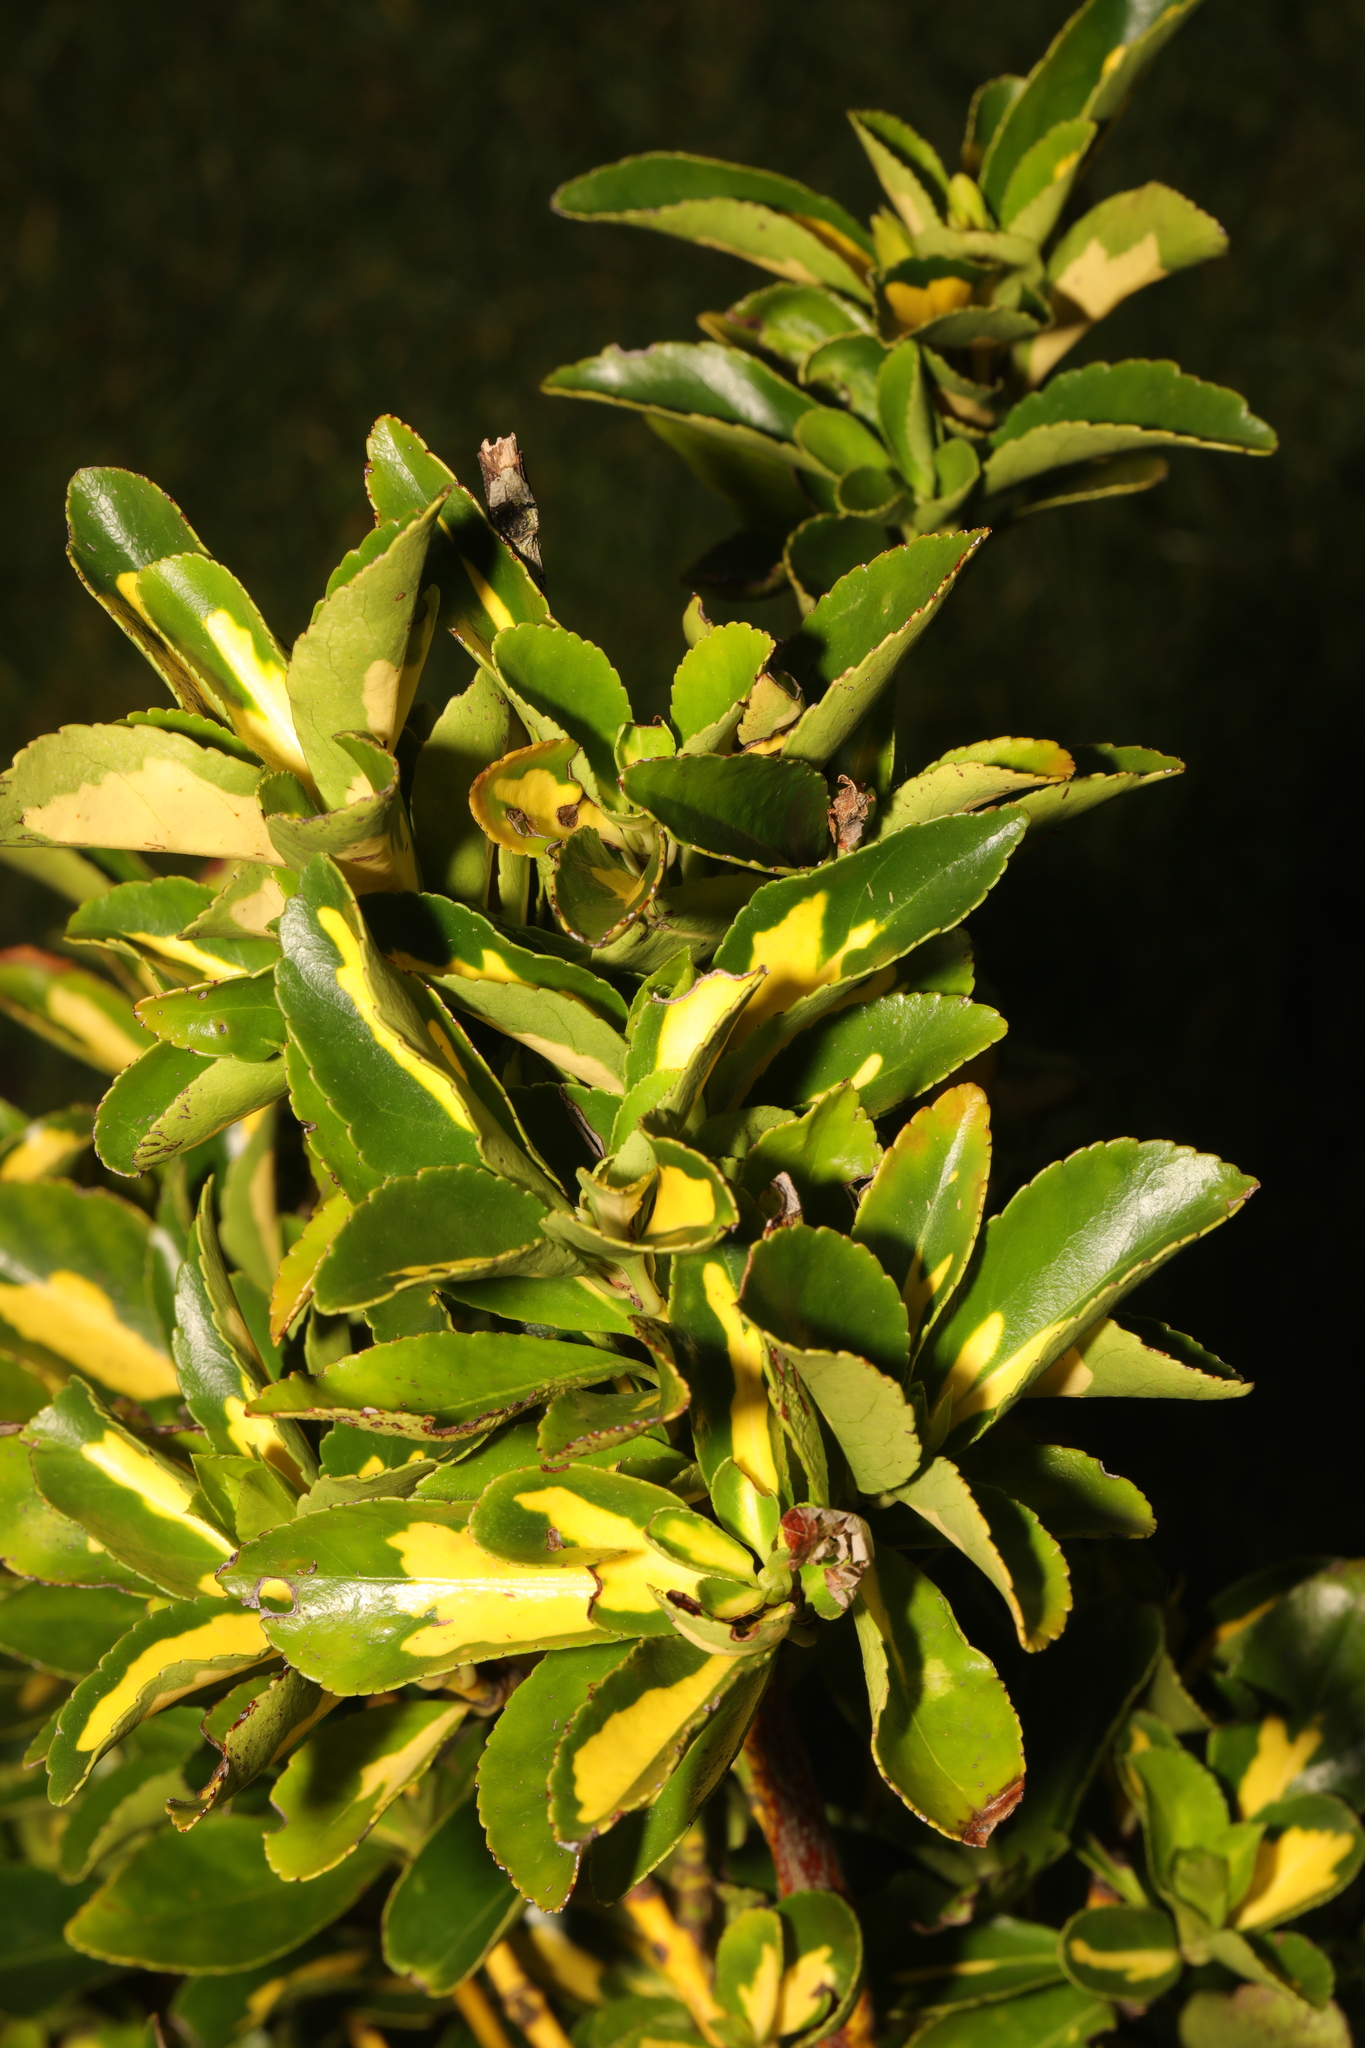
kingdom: Plantae
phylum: Tracheophyta
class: Magnoliopsida
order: Celastrales
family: Celastraceae
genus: Euonymus
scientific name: Euonymus japonicus
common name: Japanese spindletree
